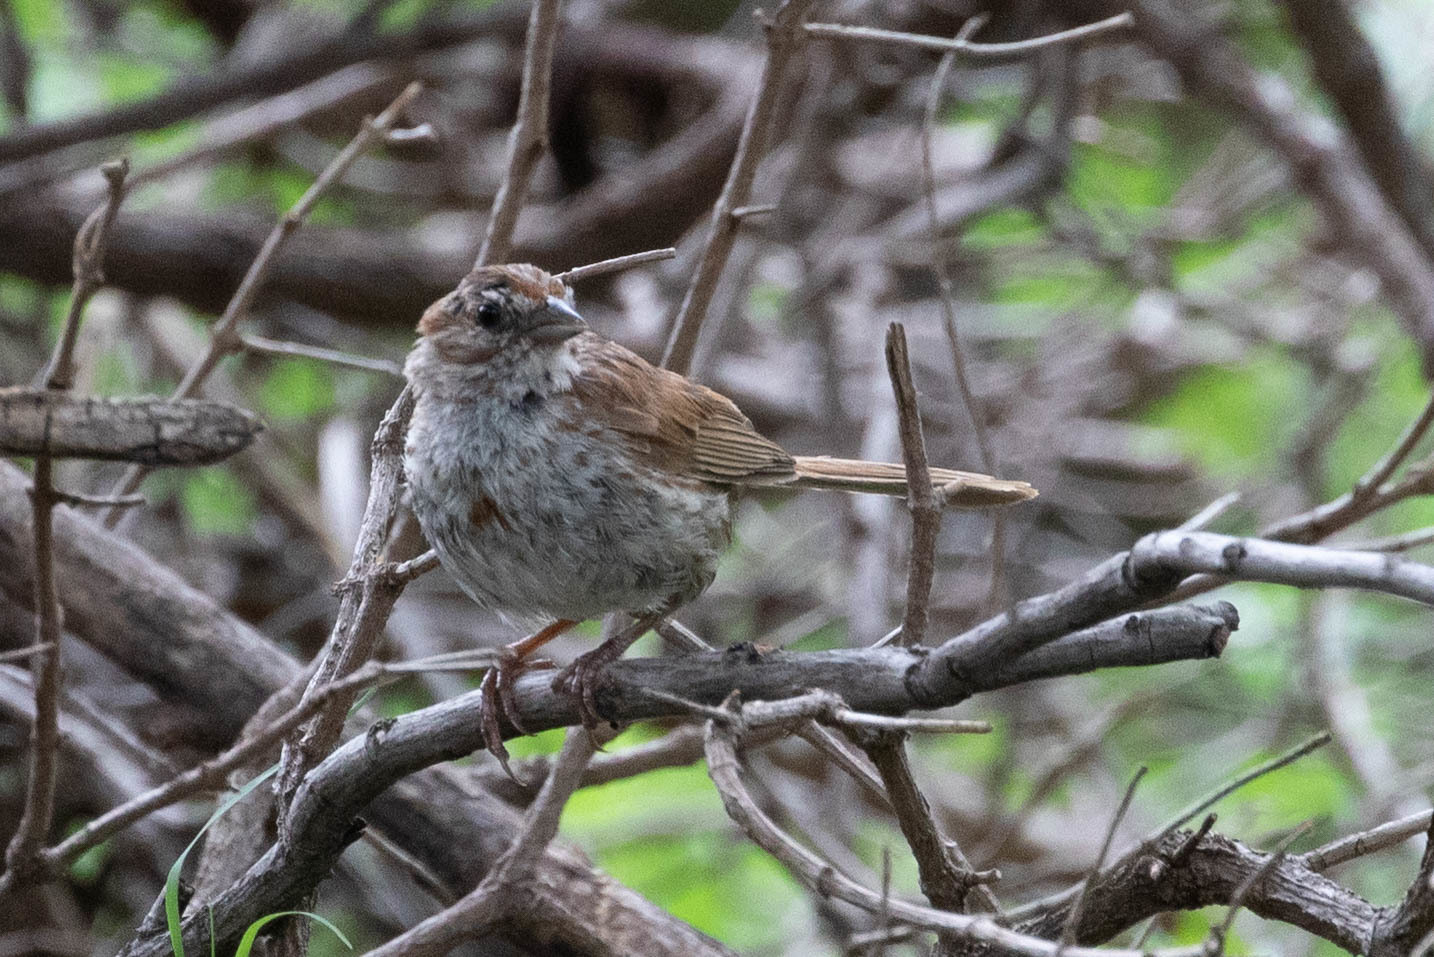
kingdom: Animalia
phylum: Chordata
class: Aves
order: Passeriformes
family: Passerellidae
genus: Melospiza
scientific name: Melospiza melodia
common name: Song sparrow
